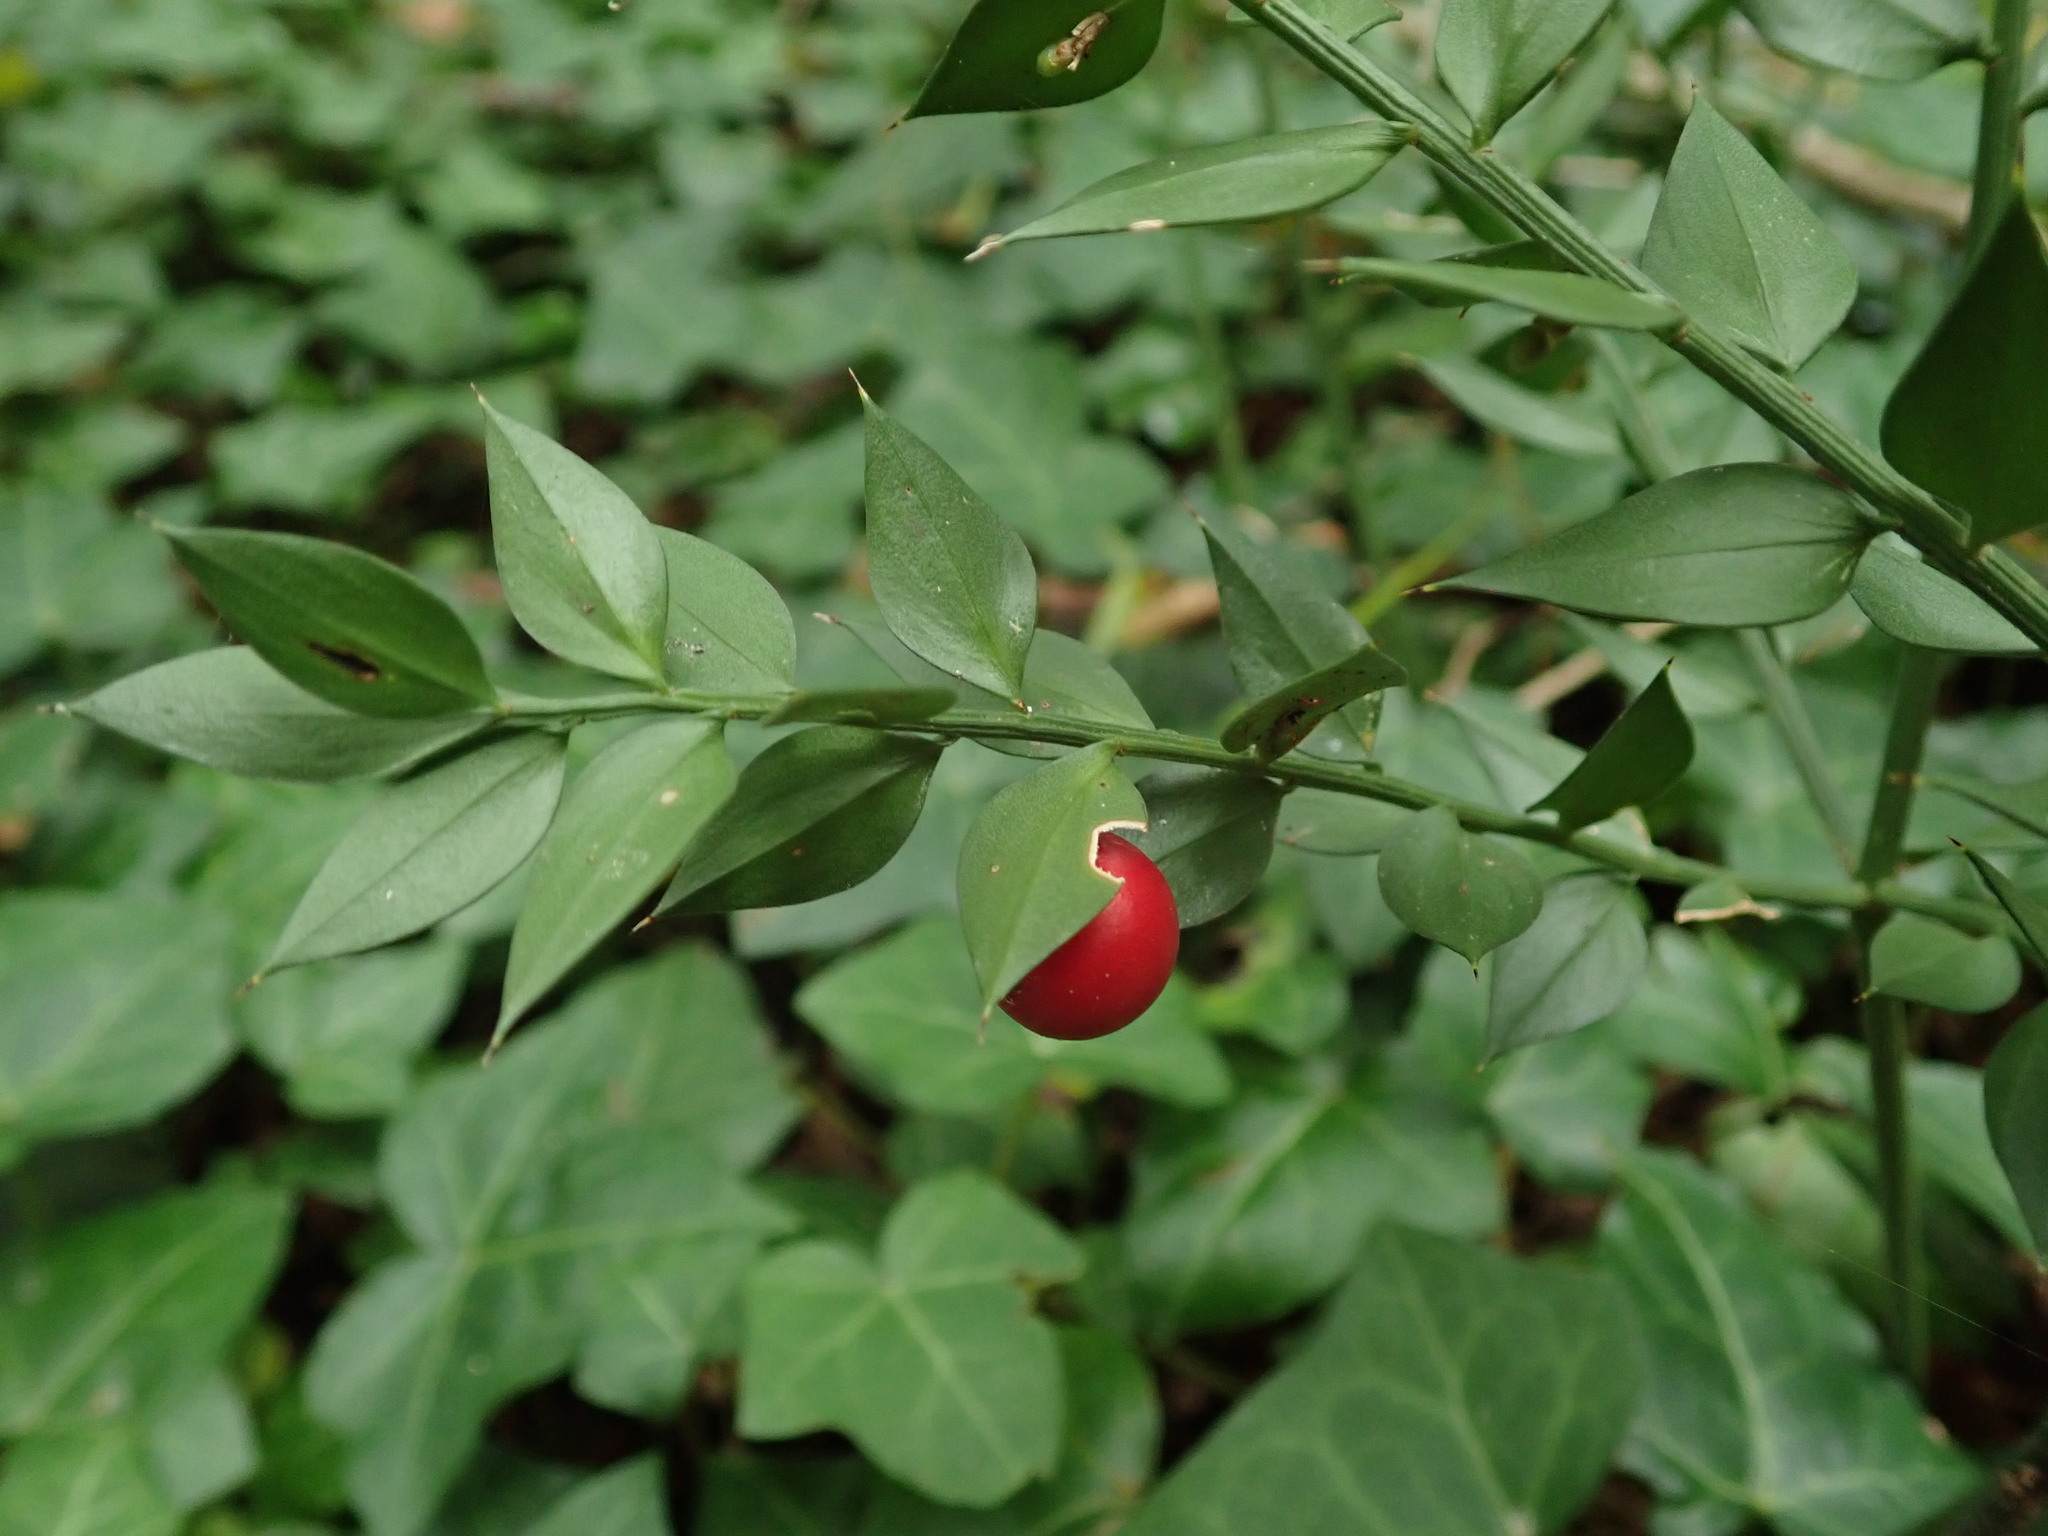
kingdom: Plantae
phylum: Tracheophyta
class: Liliopsida
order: Asparagales
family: Asparagaceae
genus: Ruscus
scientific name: Ruscus aculeatus
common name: Butcher's-broom
